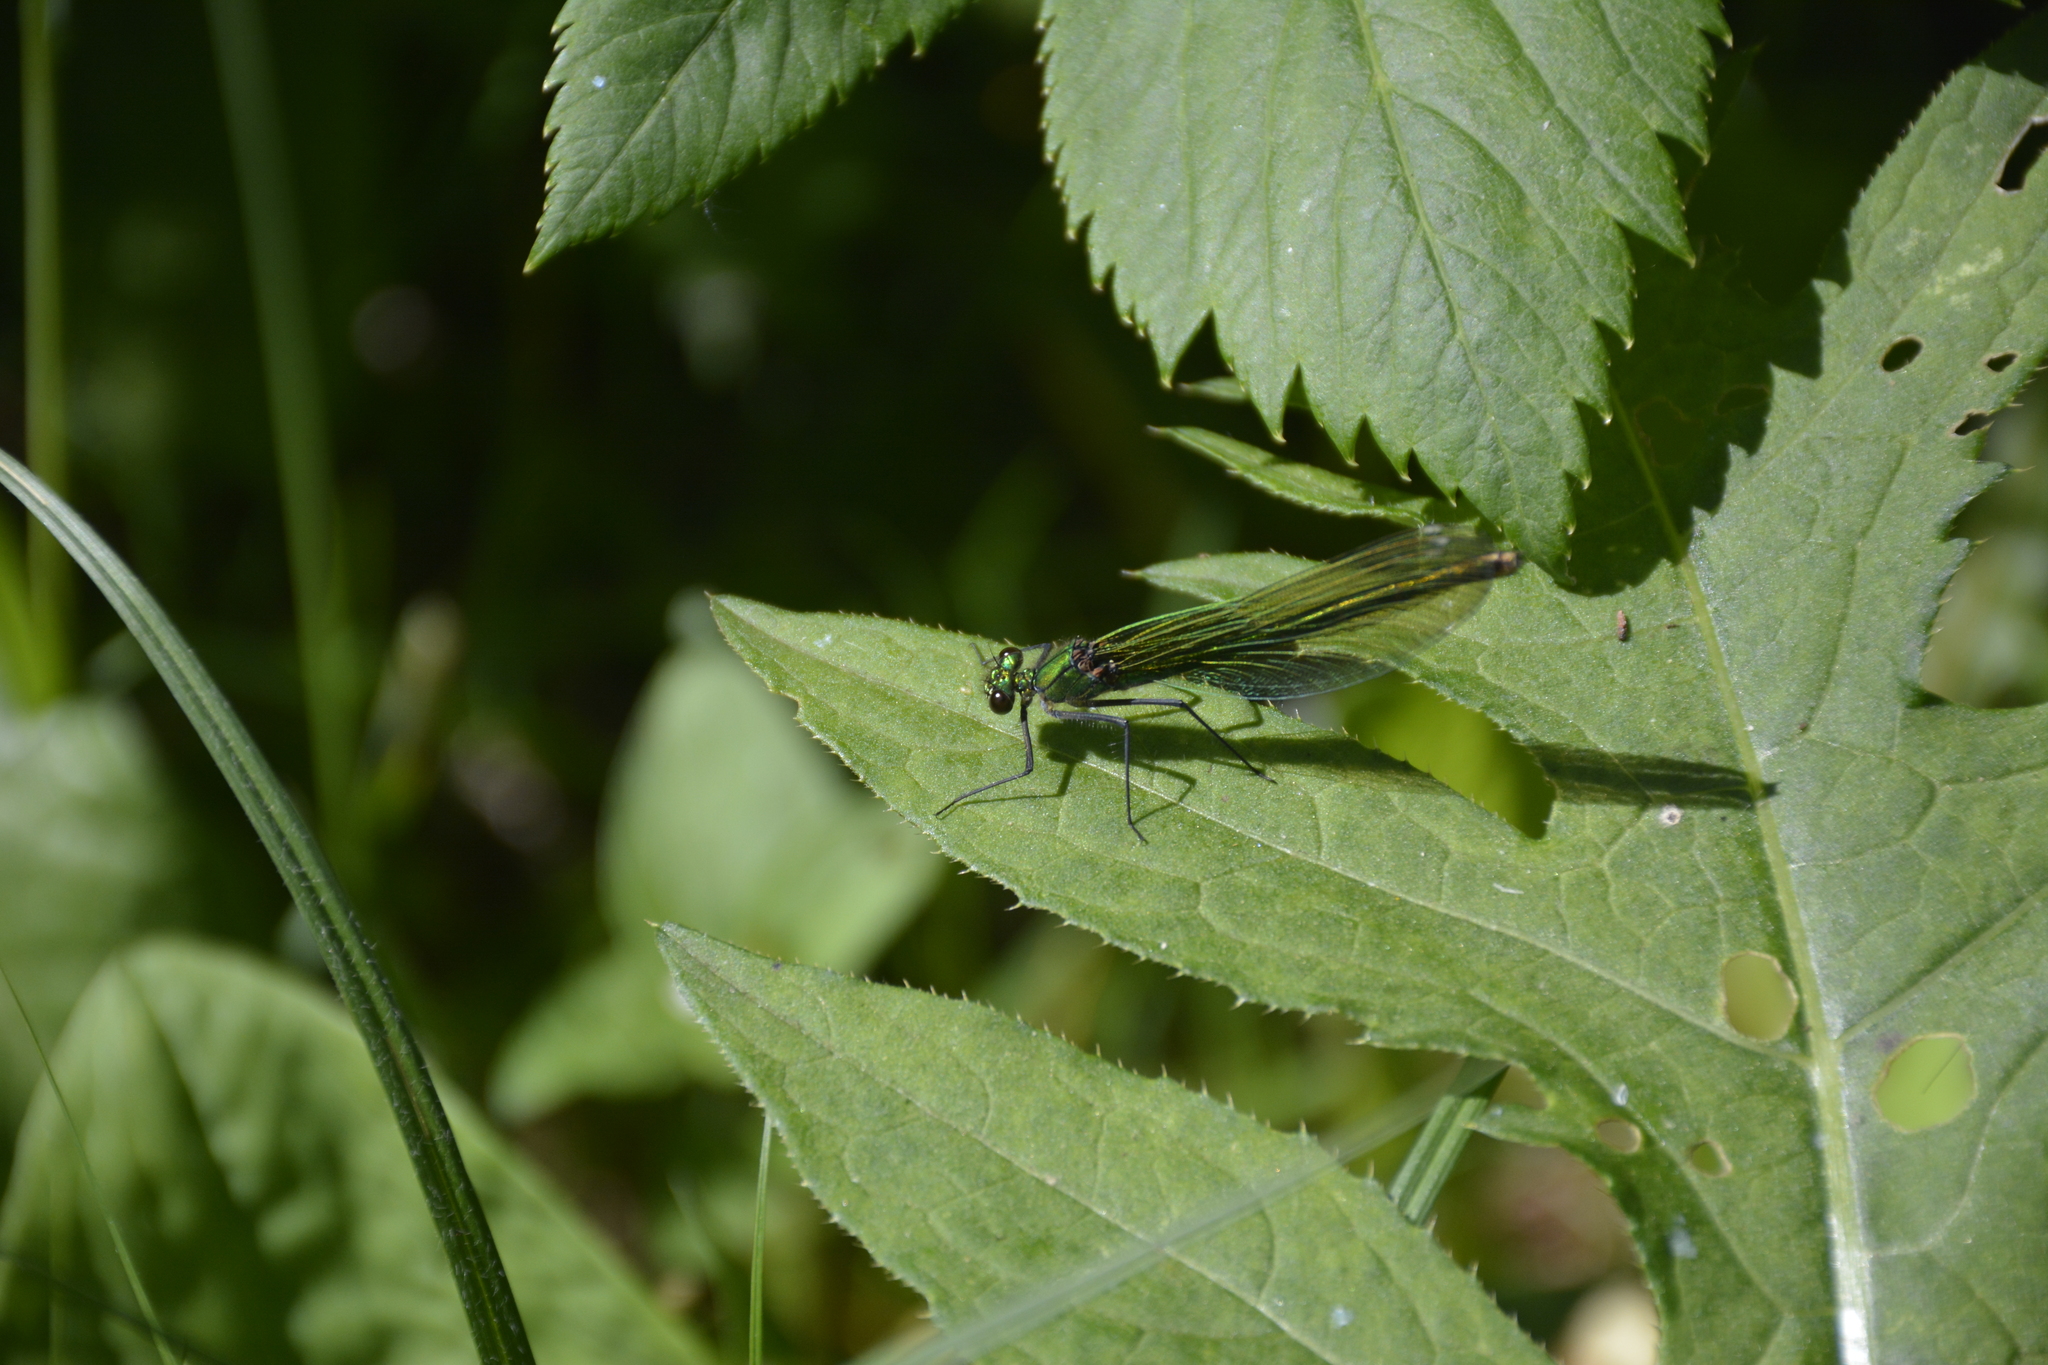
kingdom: Animalia
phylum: Arthropoda
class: Insecta
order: Odonata
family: Calopterygidae
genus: Calopteryx
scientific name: Calopteryx splendens
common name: Banded demoiselle
